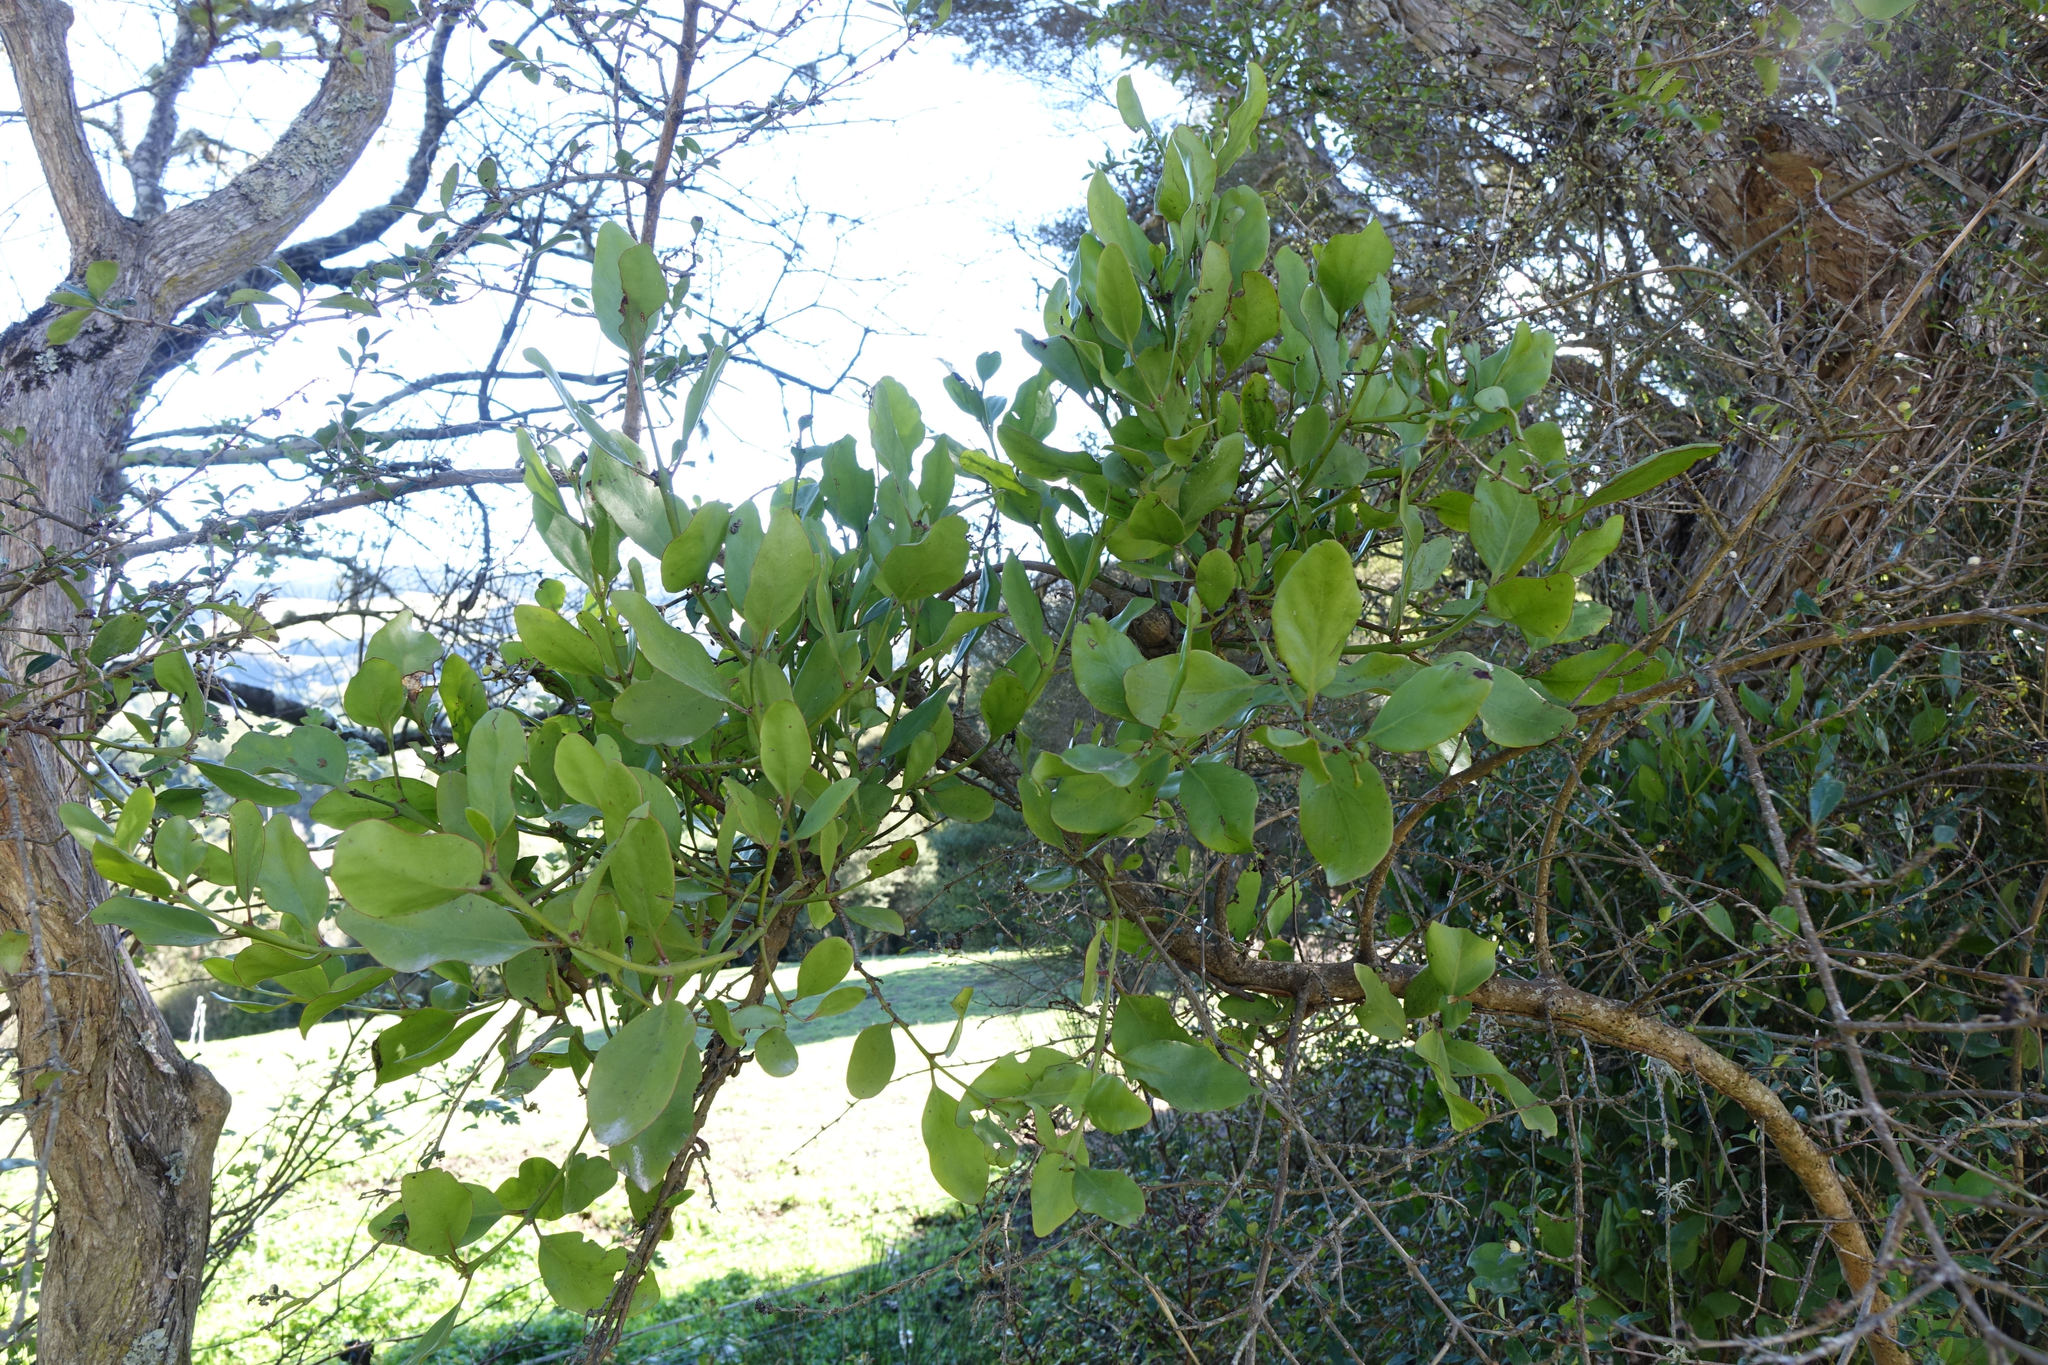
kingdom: Plantae
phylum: Tracheophyta
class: Magnoliopsida
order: Santalales
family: Loranthaceae
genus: Ileostylus
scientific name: Ileostylus micranthus
